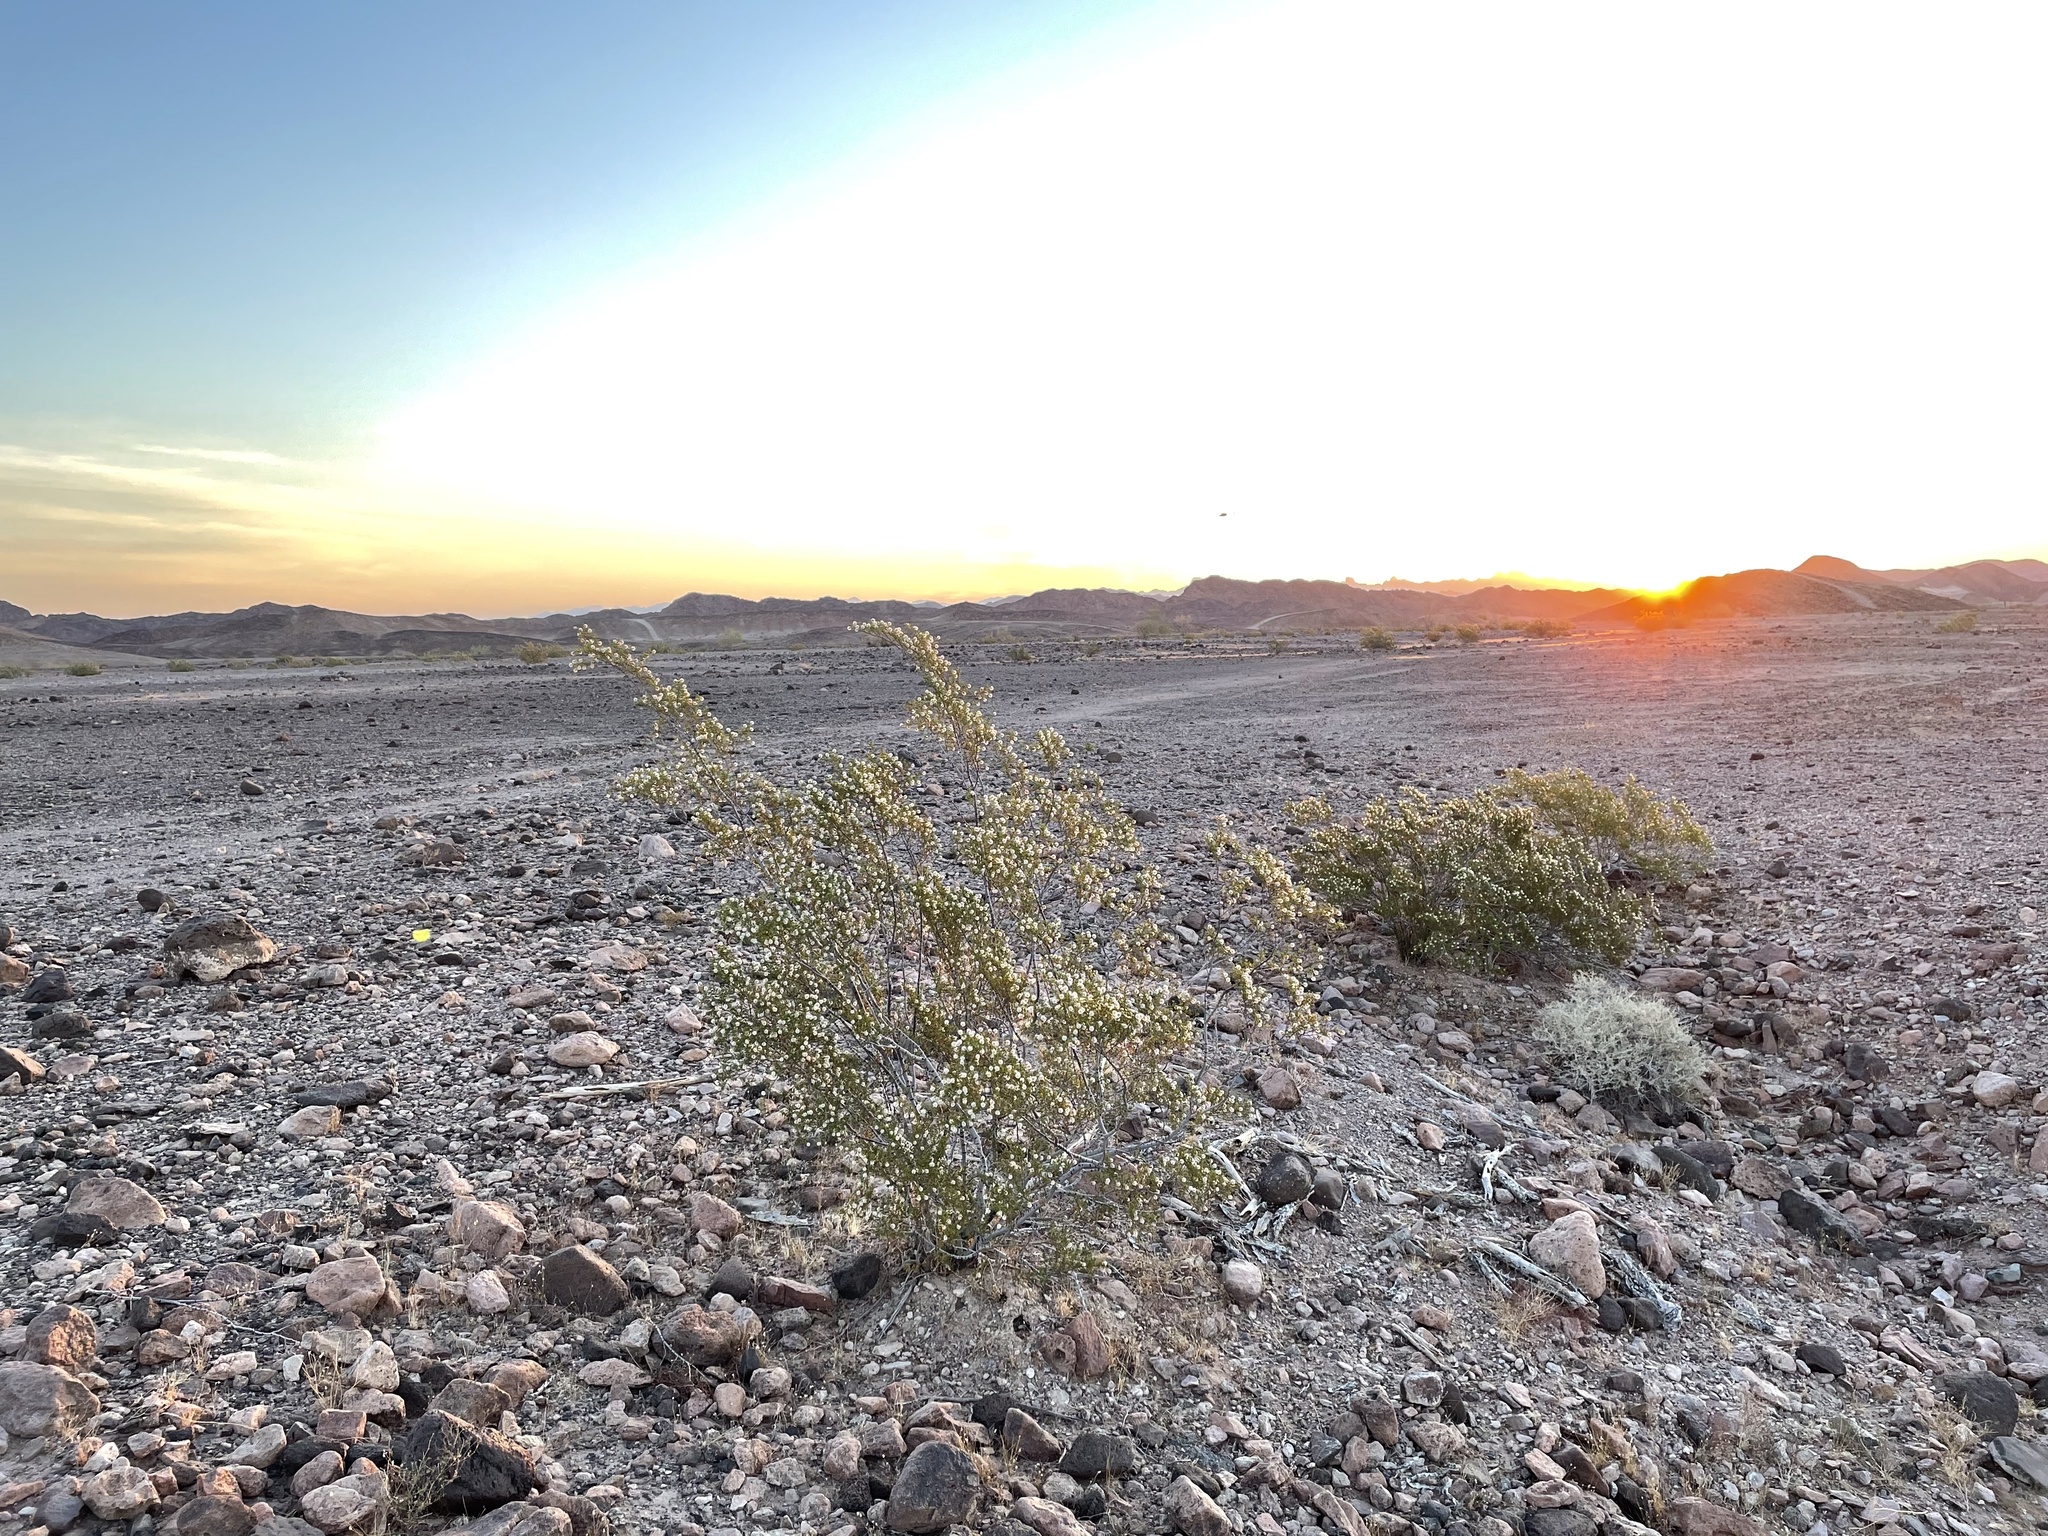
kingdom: Plantae
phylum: Tracheophyta
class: Magnoliopsida
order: Zygophyllales
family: Zygophyllaceae
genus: Larrea
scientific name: Larrea tridentata
